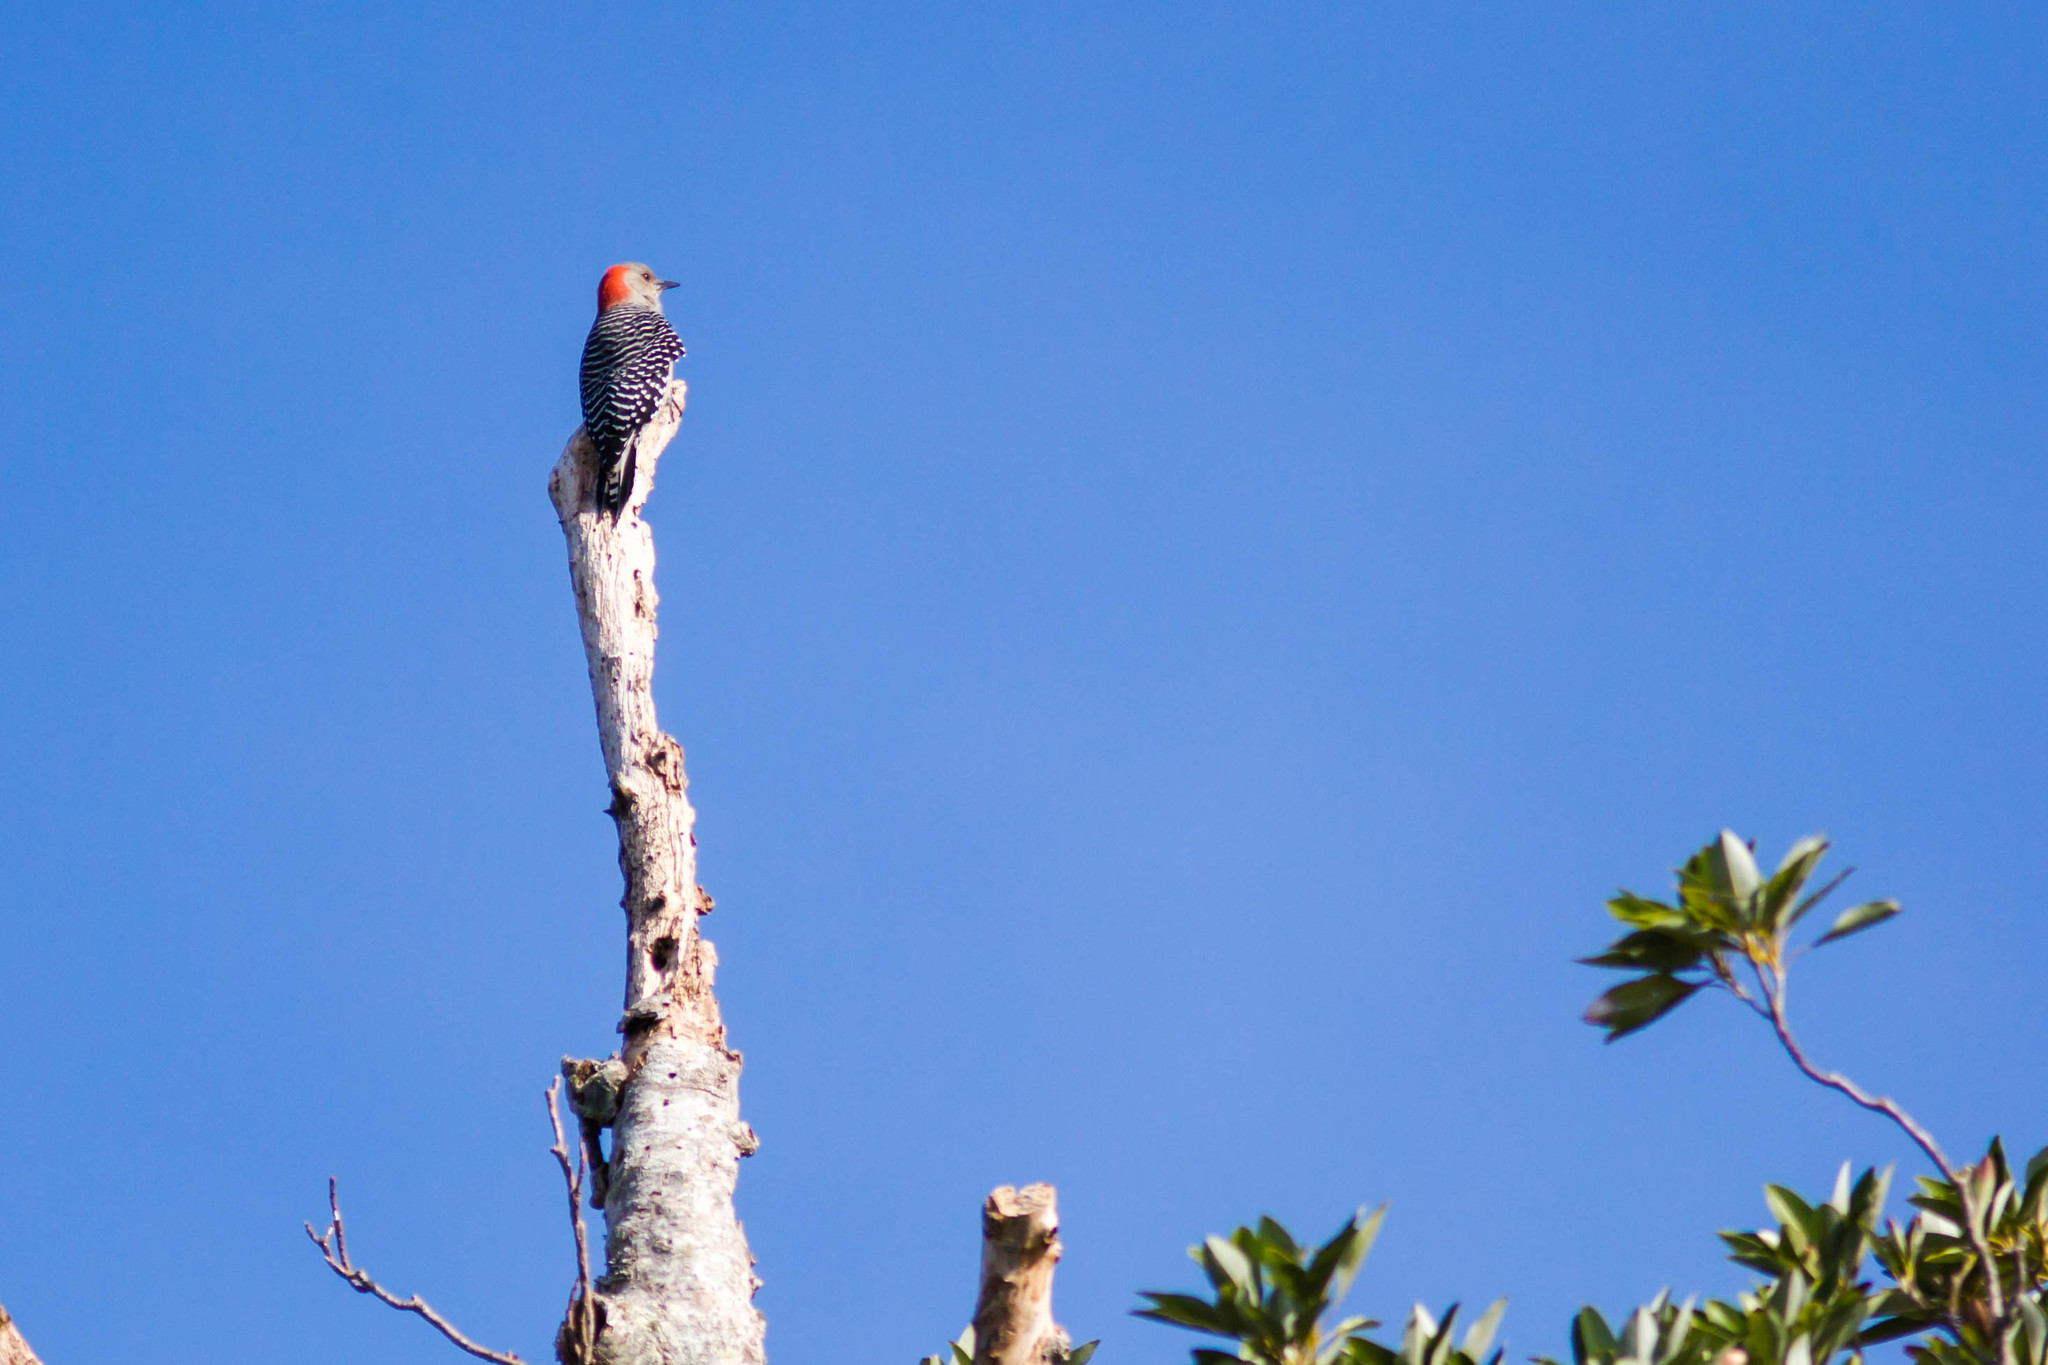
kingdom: Animalia
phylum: Chordata
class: Aves
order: Piciformes
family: Picidae
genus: Melanerpes
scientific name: Melanerpes carolinus
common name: Red-bellied woodpecker
